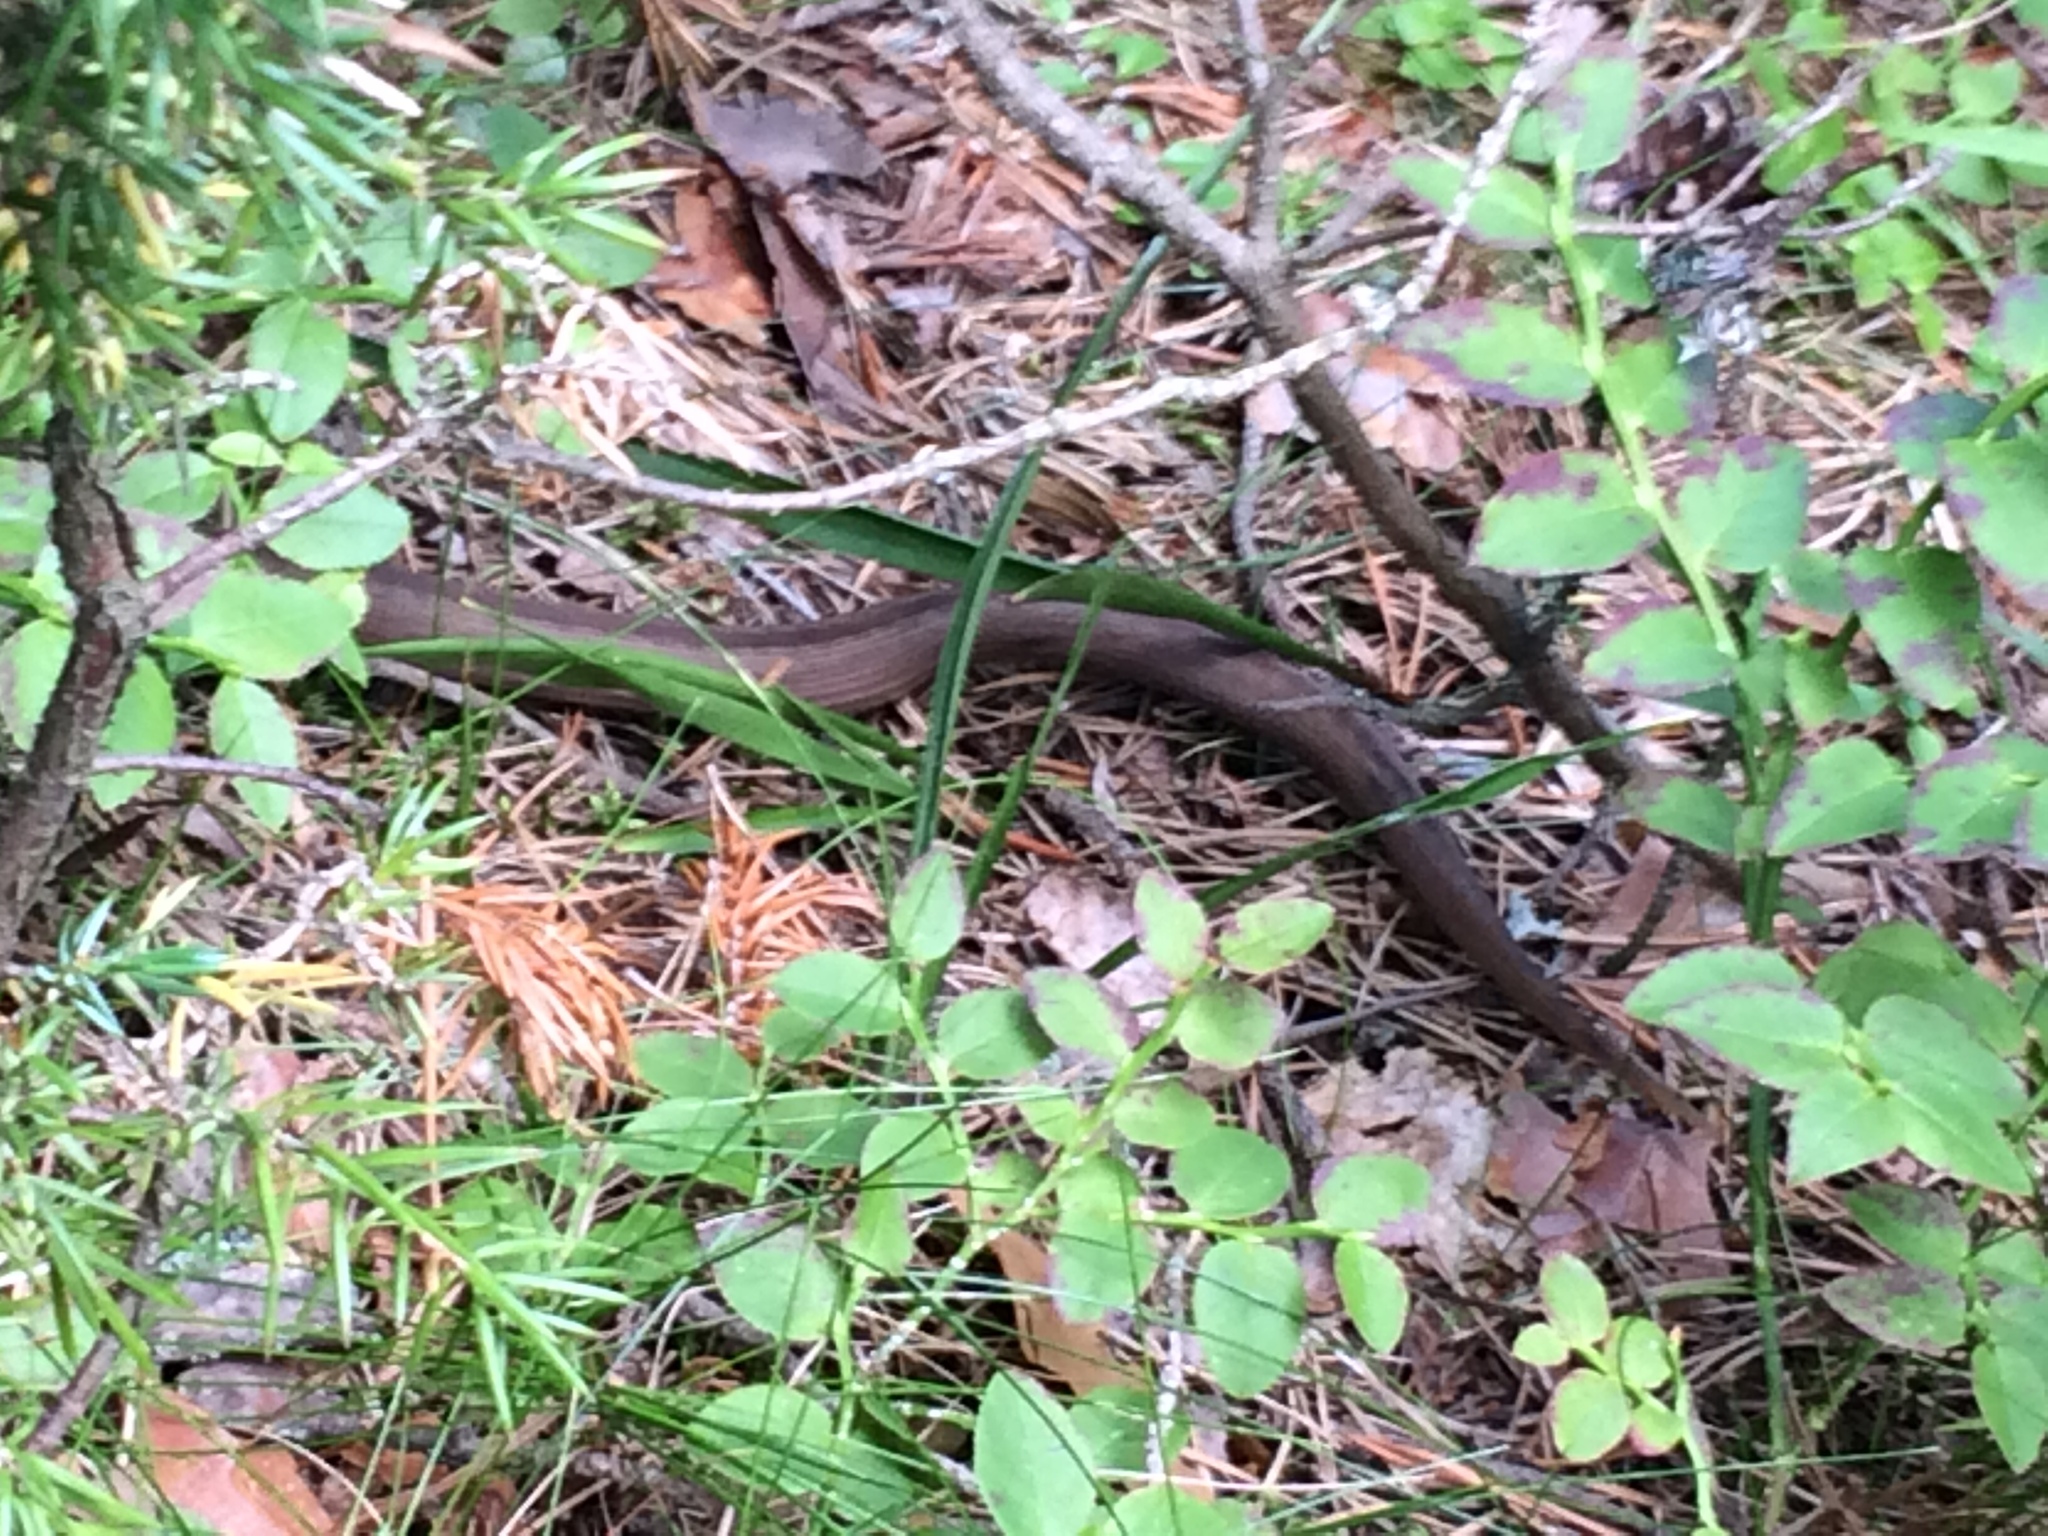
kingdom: Animalia
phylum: Chordata
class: Squamata
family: Viperidae
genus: Vipera
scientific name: Vipera berus
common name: Adder
